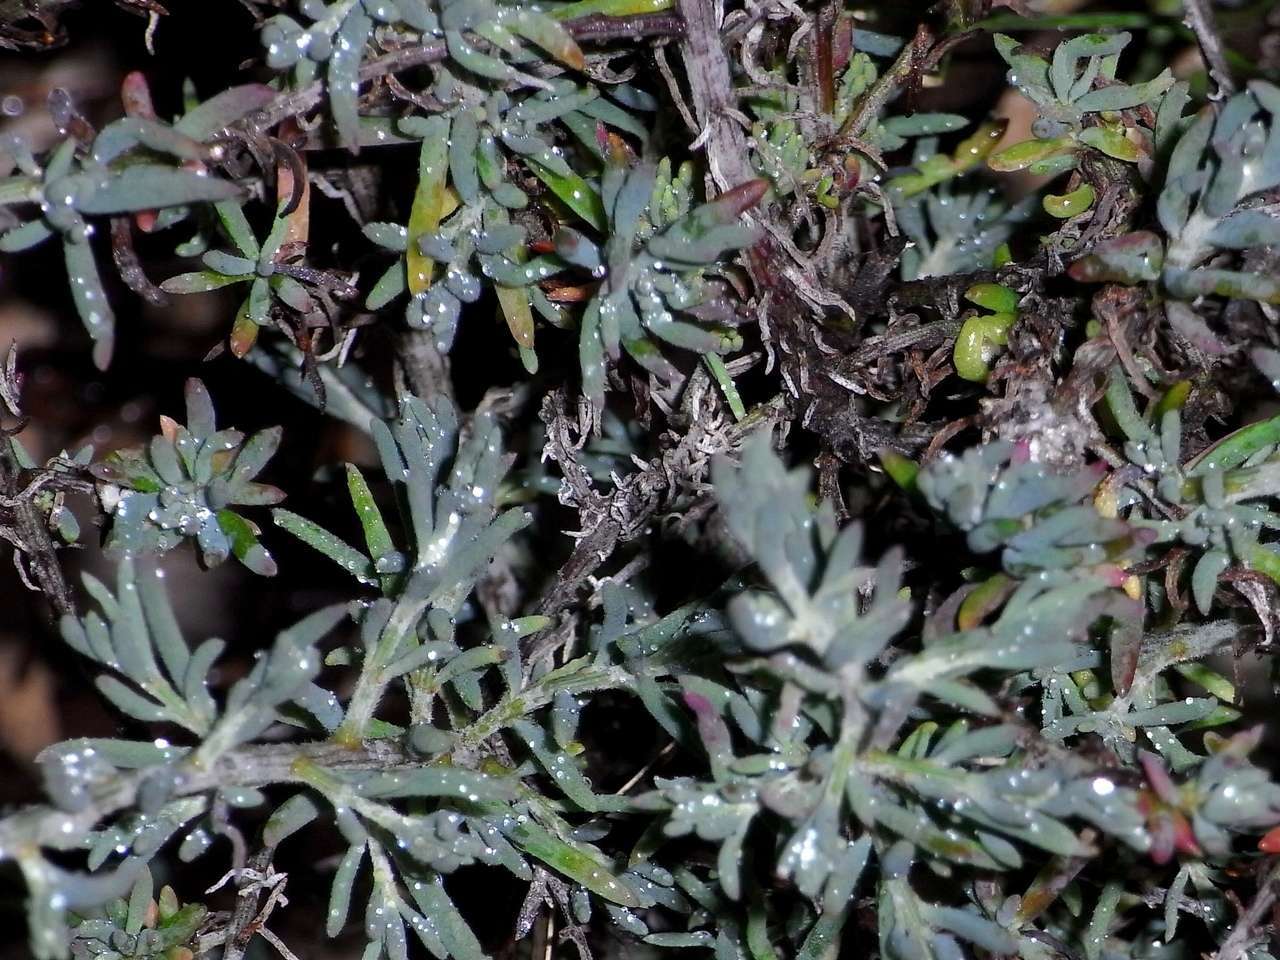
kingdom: Plantae
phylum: Tracheophyta
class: Magnoliopsida
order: Caryophyllales
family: Amaranthaceae
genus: Enchylaena
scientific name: Enchylaena tomentosa
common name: Ruby saltbush
